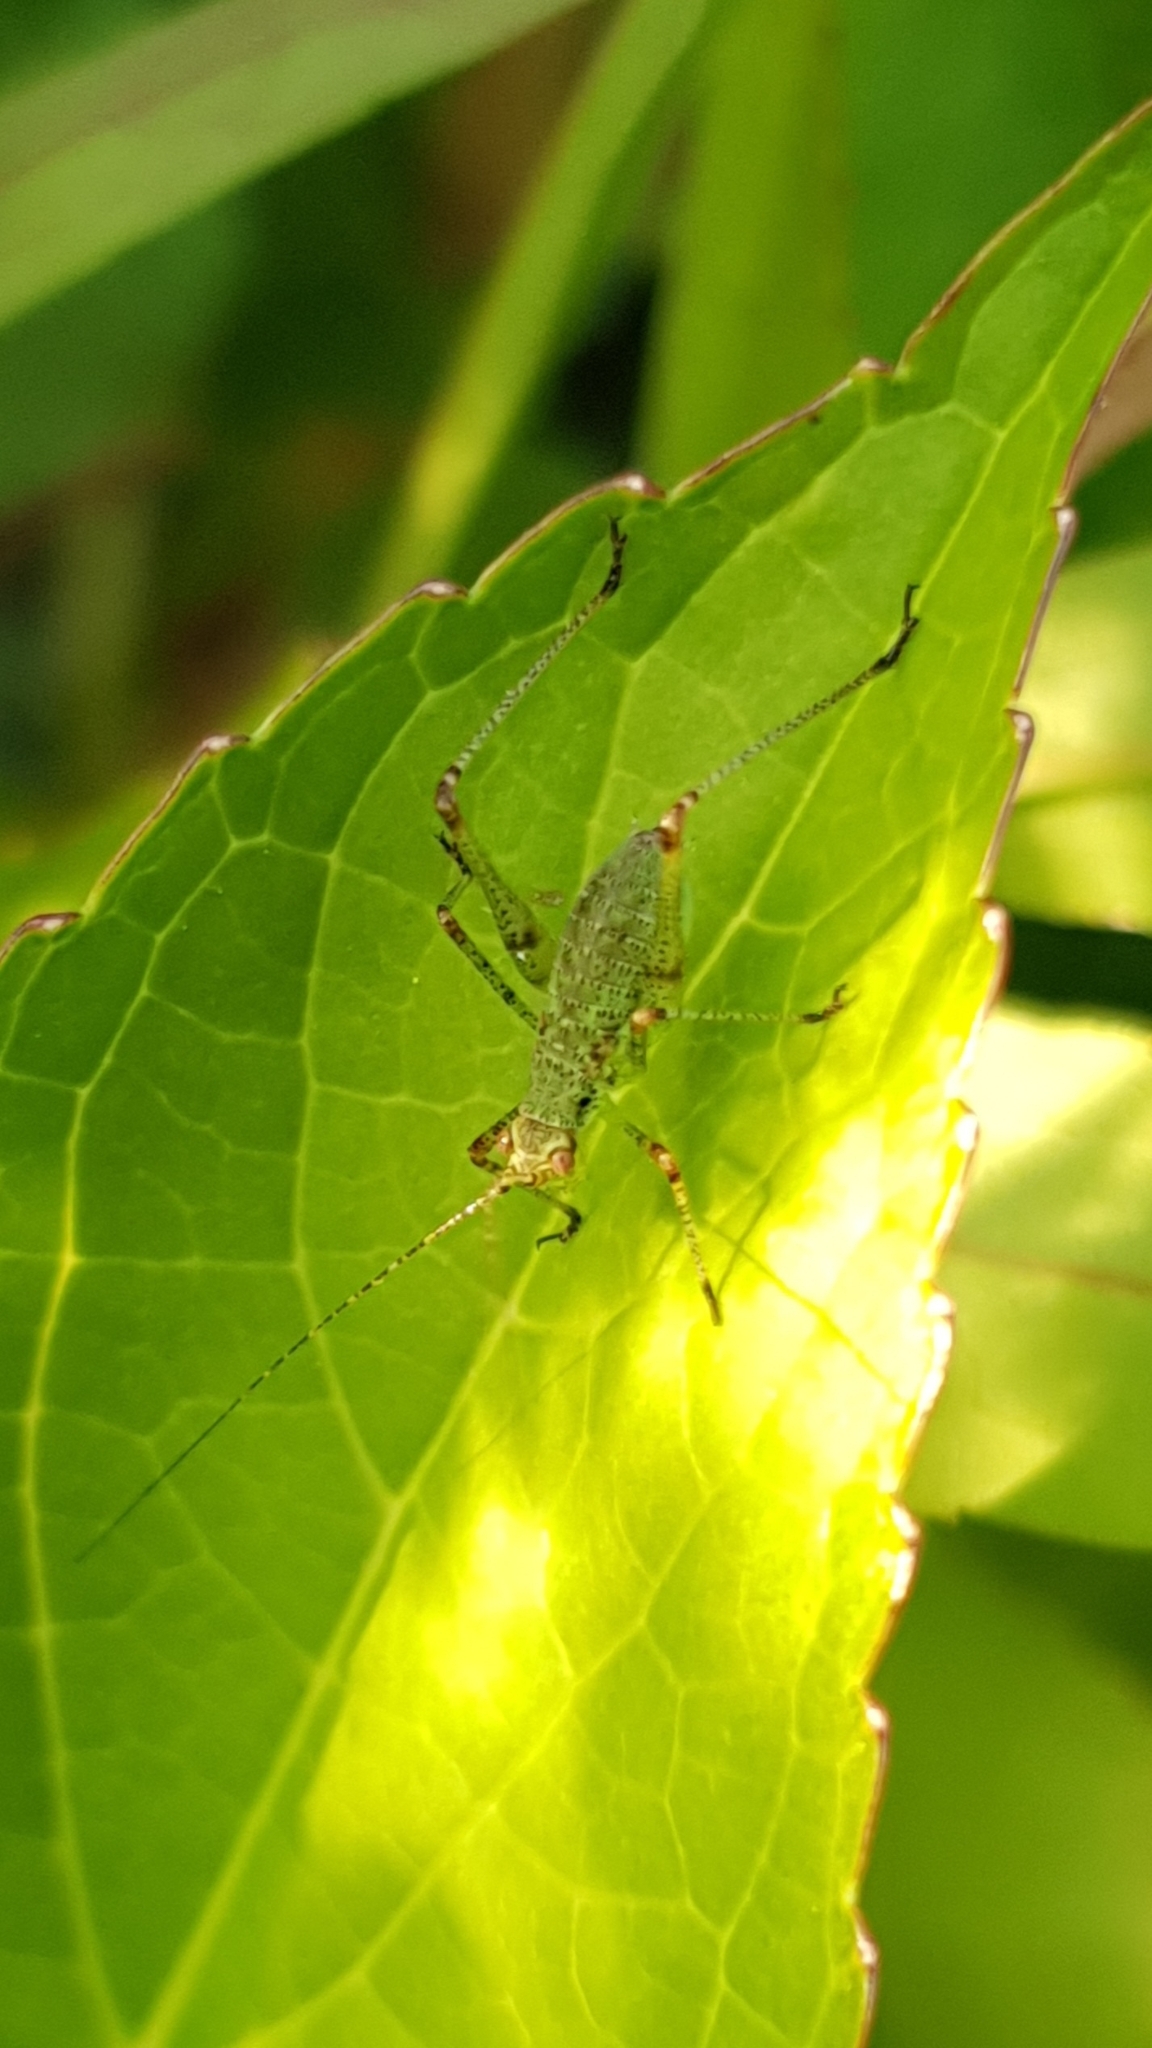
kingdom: Animalia
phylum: Arthropoda
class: Insecta
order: Orthoptera
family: Tettigoniidae
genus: Phaneroptera
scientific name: Phaneroptera nana
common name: Southern sickle bush-cricket
